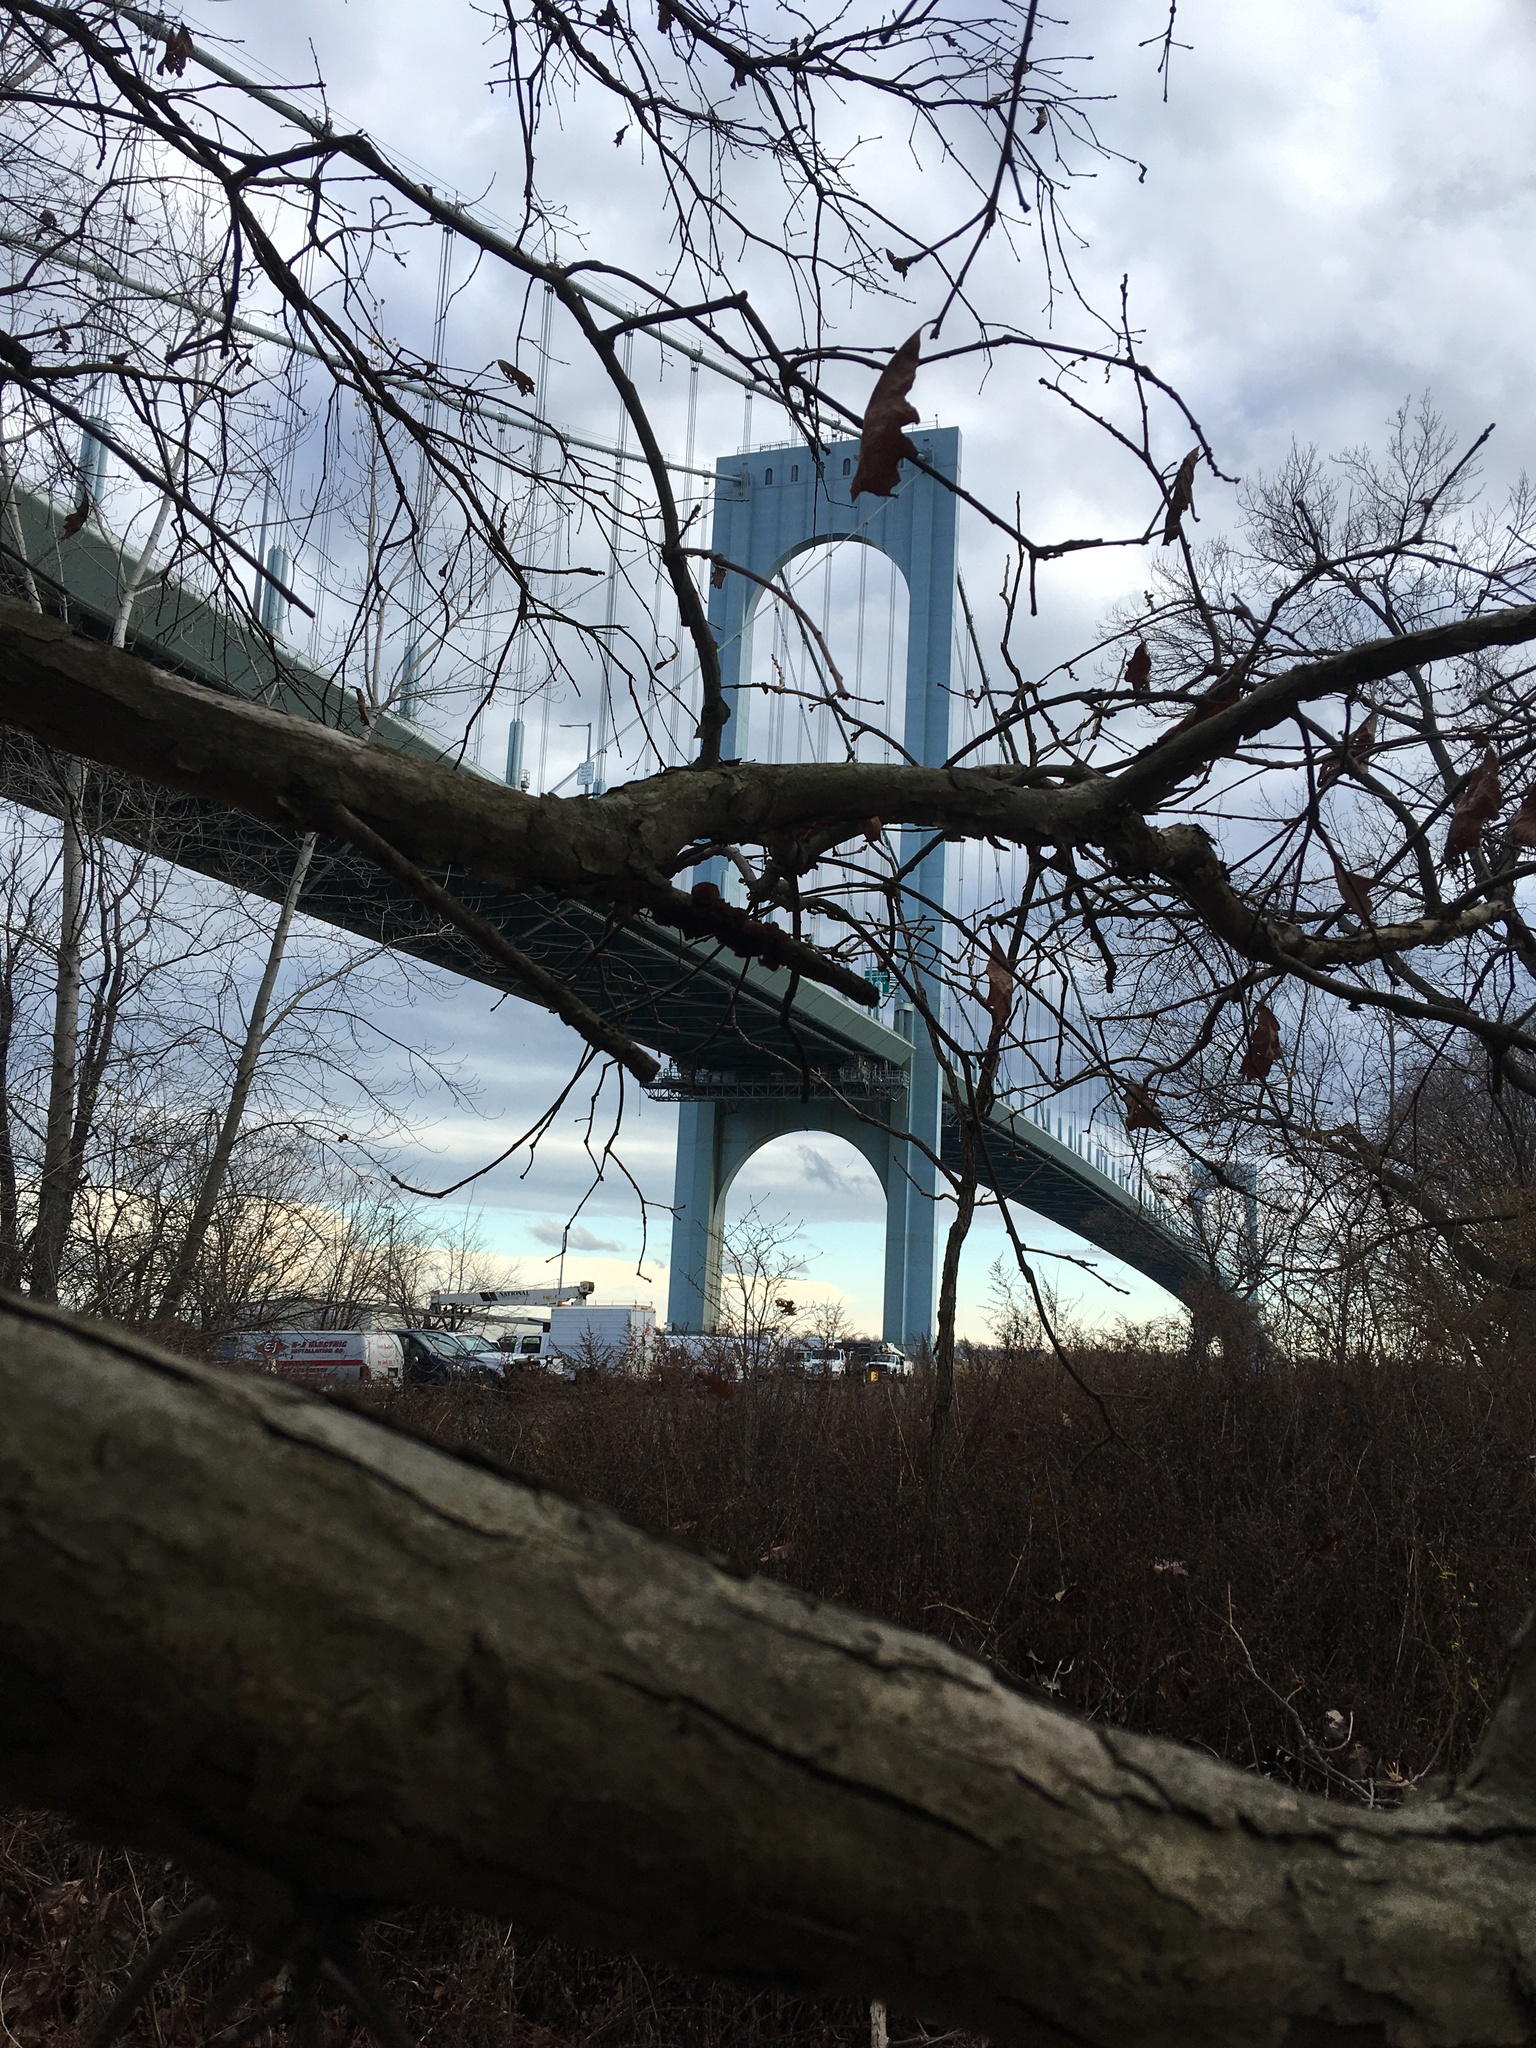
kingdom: Plantae
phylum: Tracheophyta
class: Magnoliopsida
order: Fagales
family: Fagaceae
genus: Quercus
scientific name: Quercus bicolor
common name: Swamp white oak
